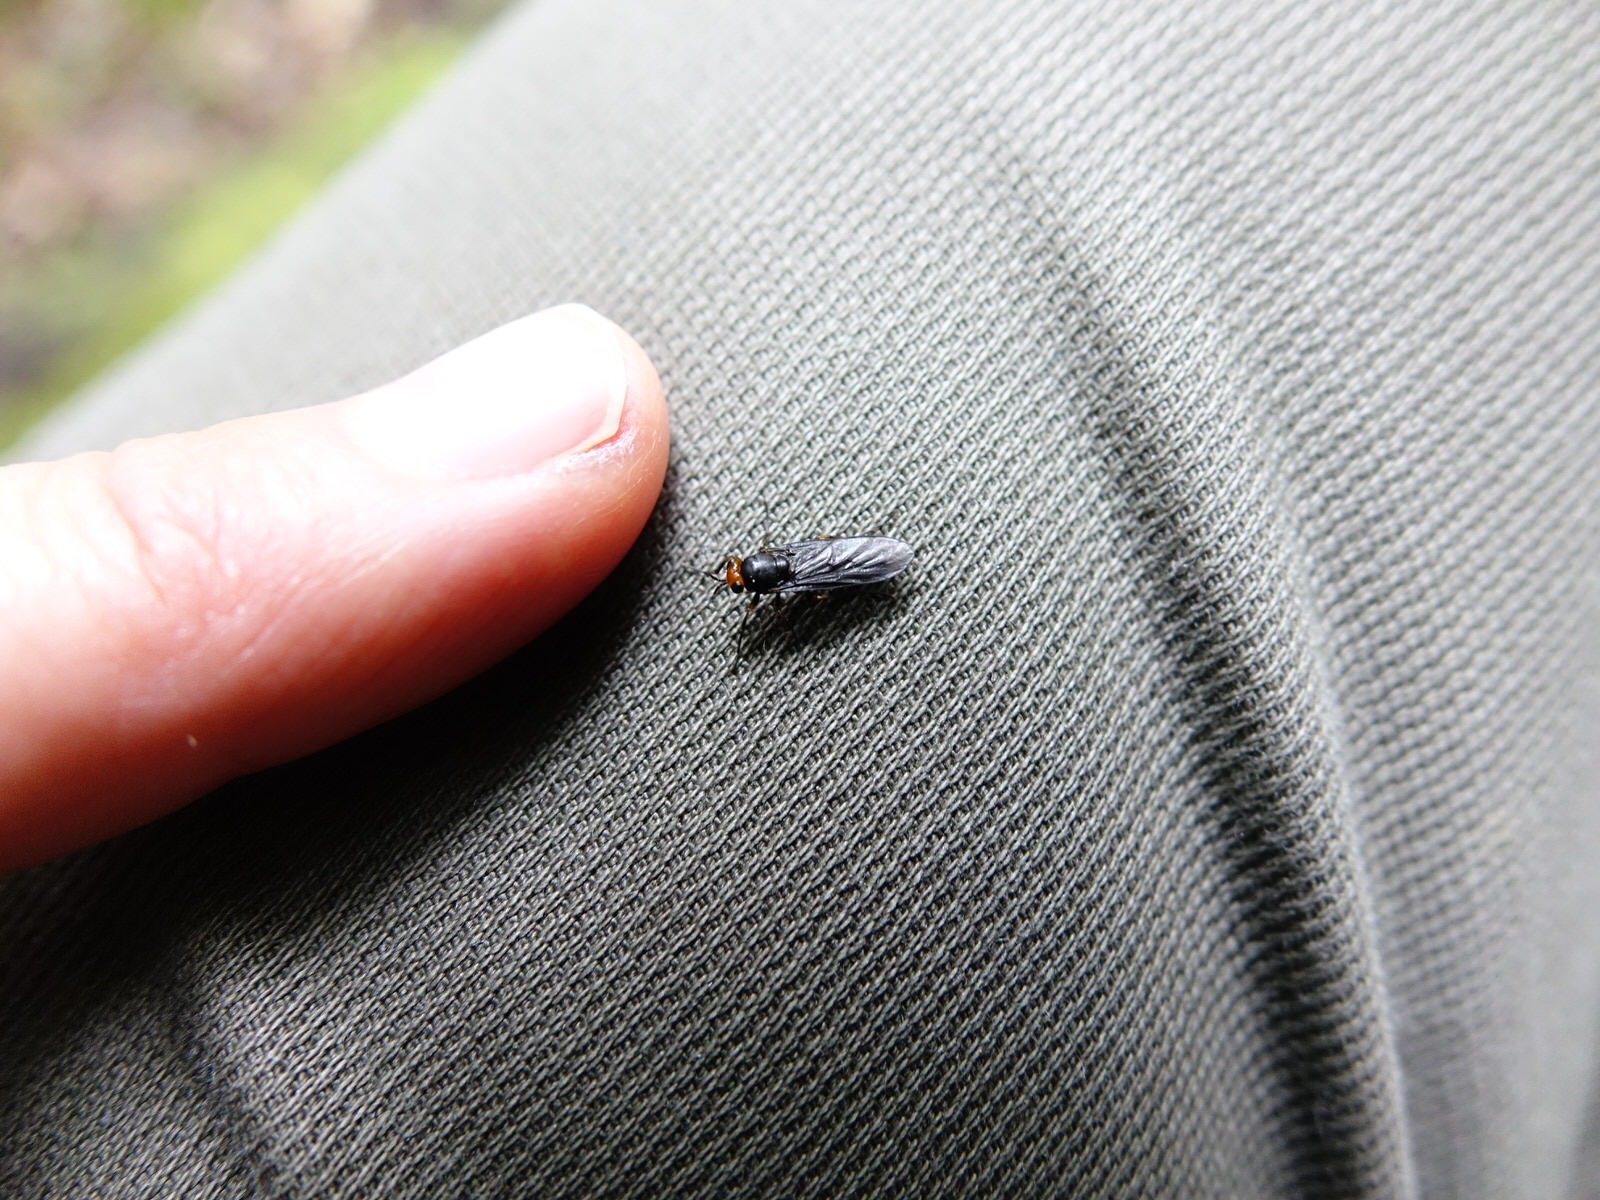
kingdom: Animalia
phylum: Arthropoda
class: Insecta
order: Diptera
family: Stratiomyidae
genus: Inopus
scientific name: Inopus rubriceps
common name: Soldier fly
